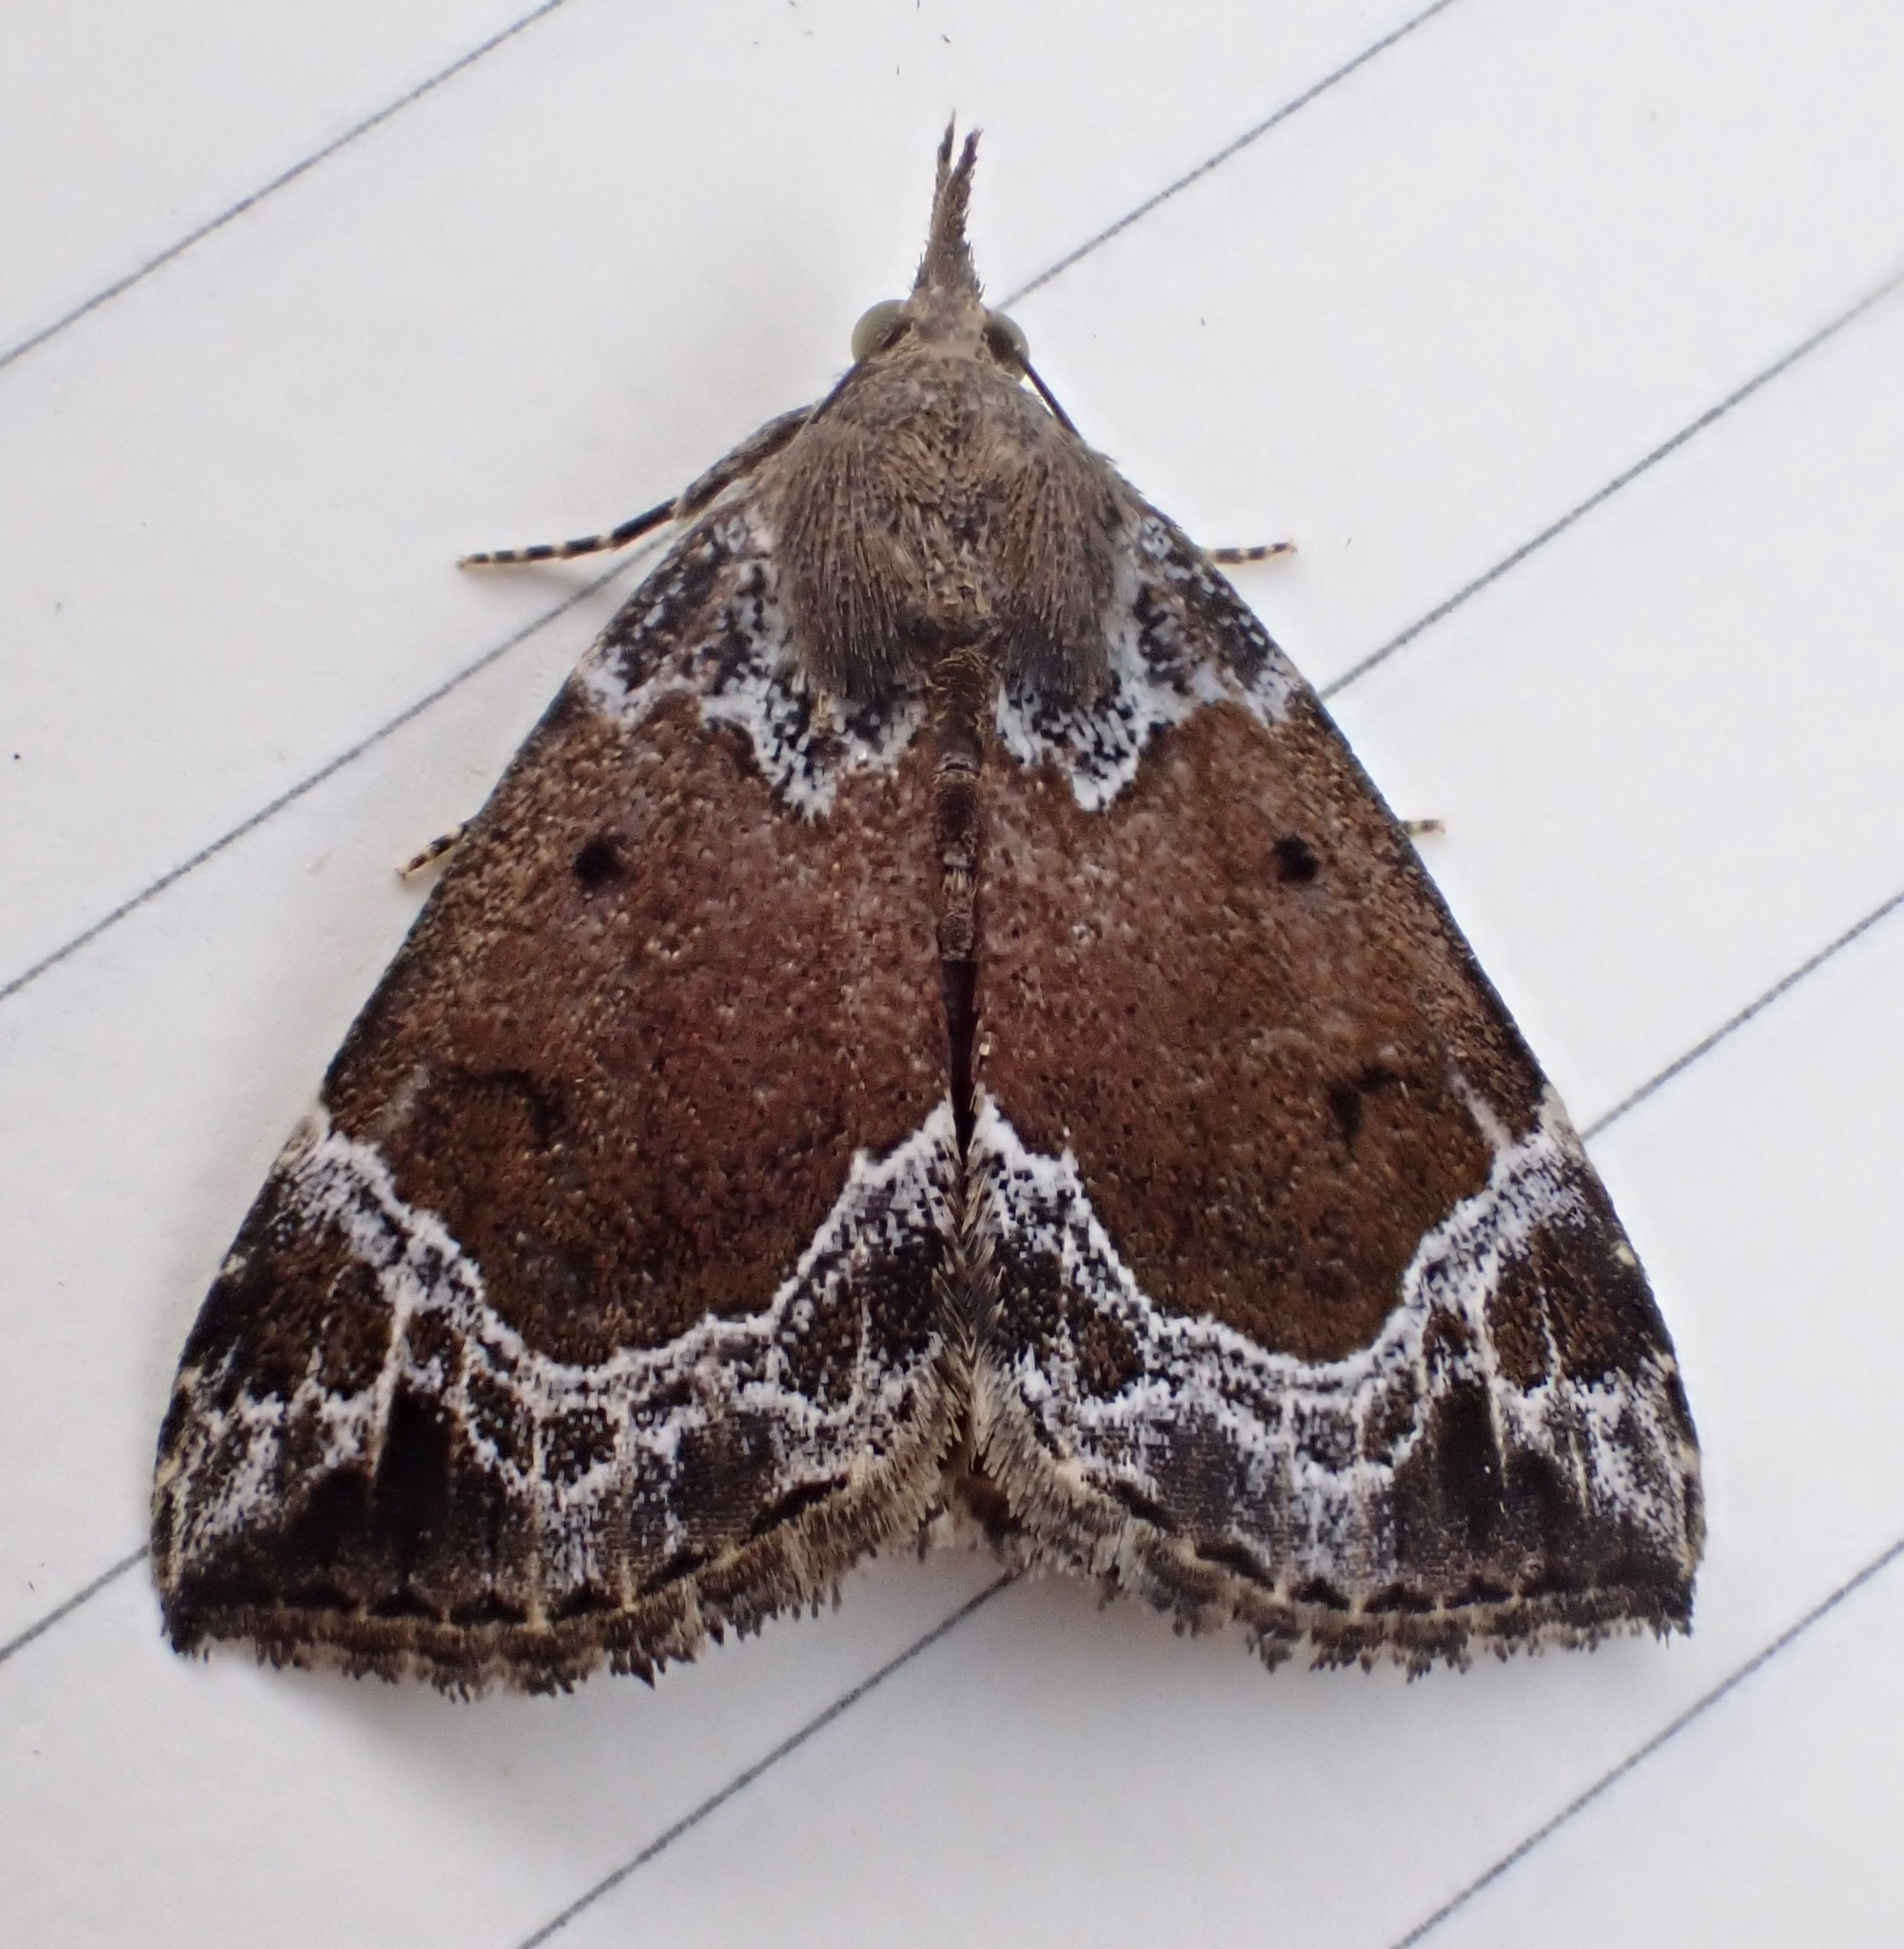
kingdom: Animalia
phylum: Arthropoda
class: Insecta
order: Lepidoptera
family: Erebidae
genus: Hypena
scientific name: Hypena abalienalis
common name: White-lined snout
